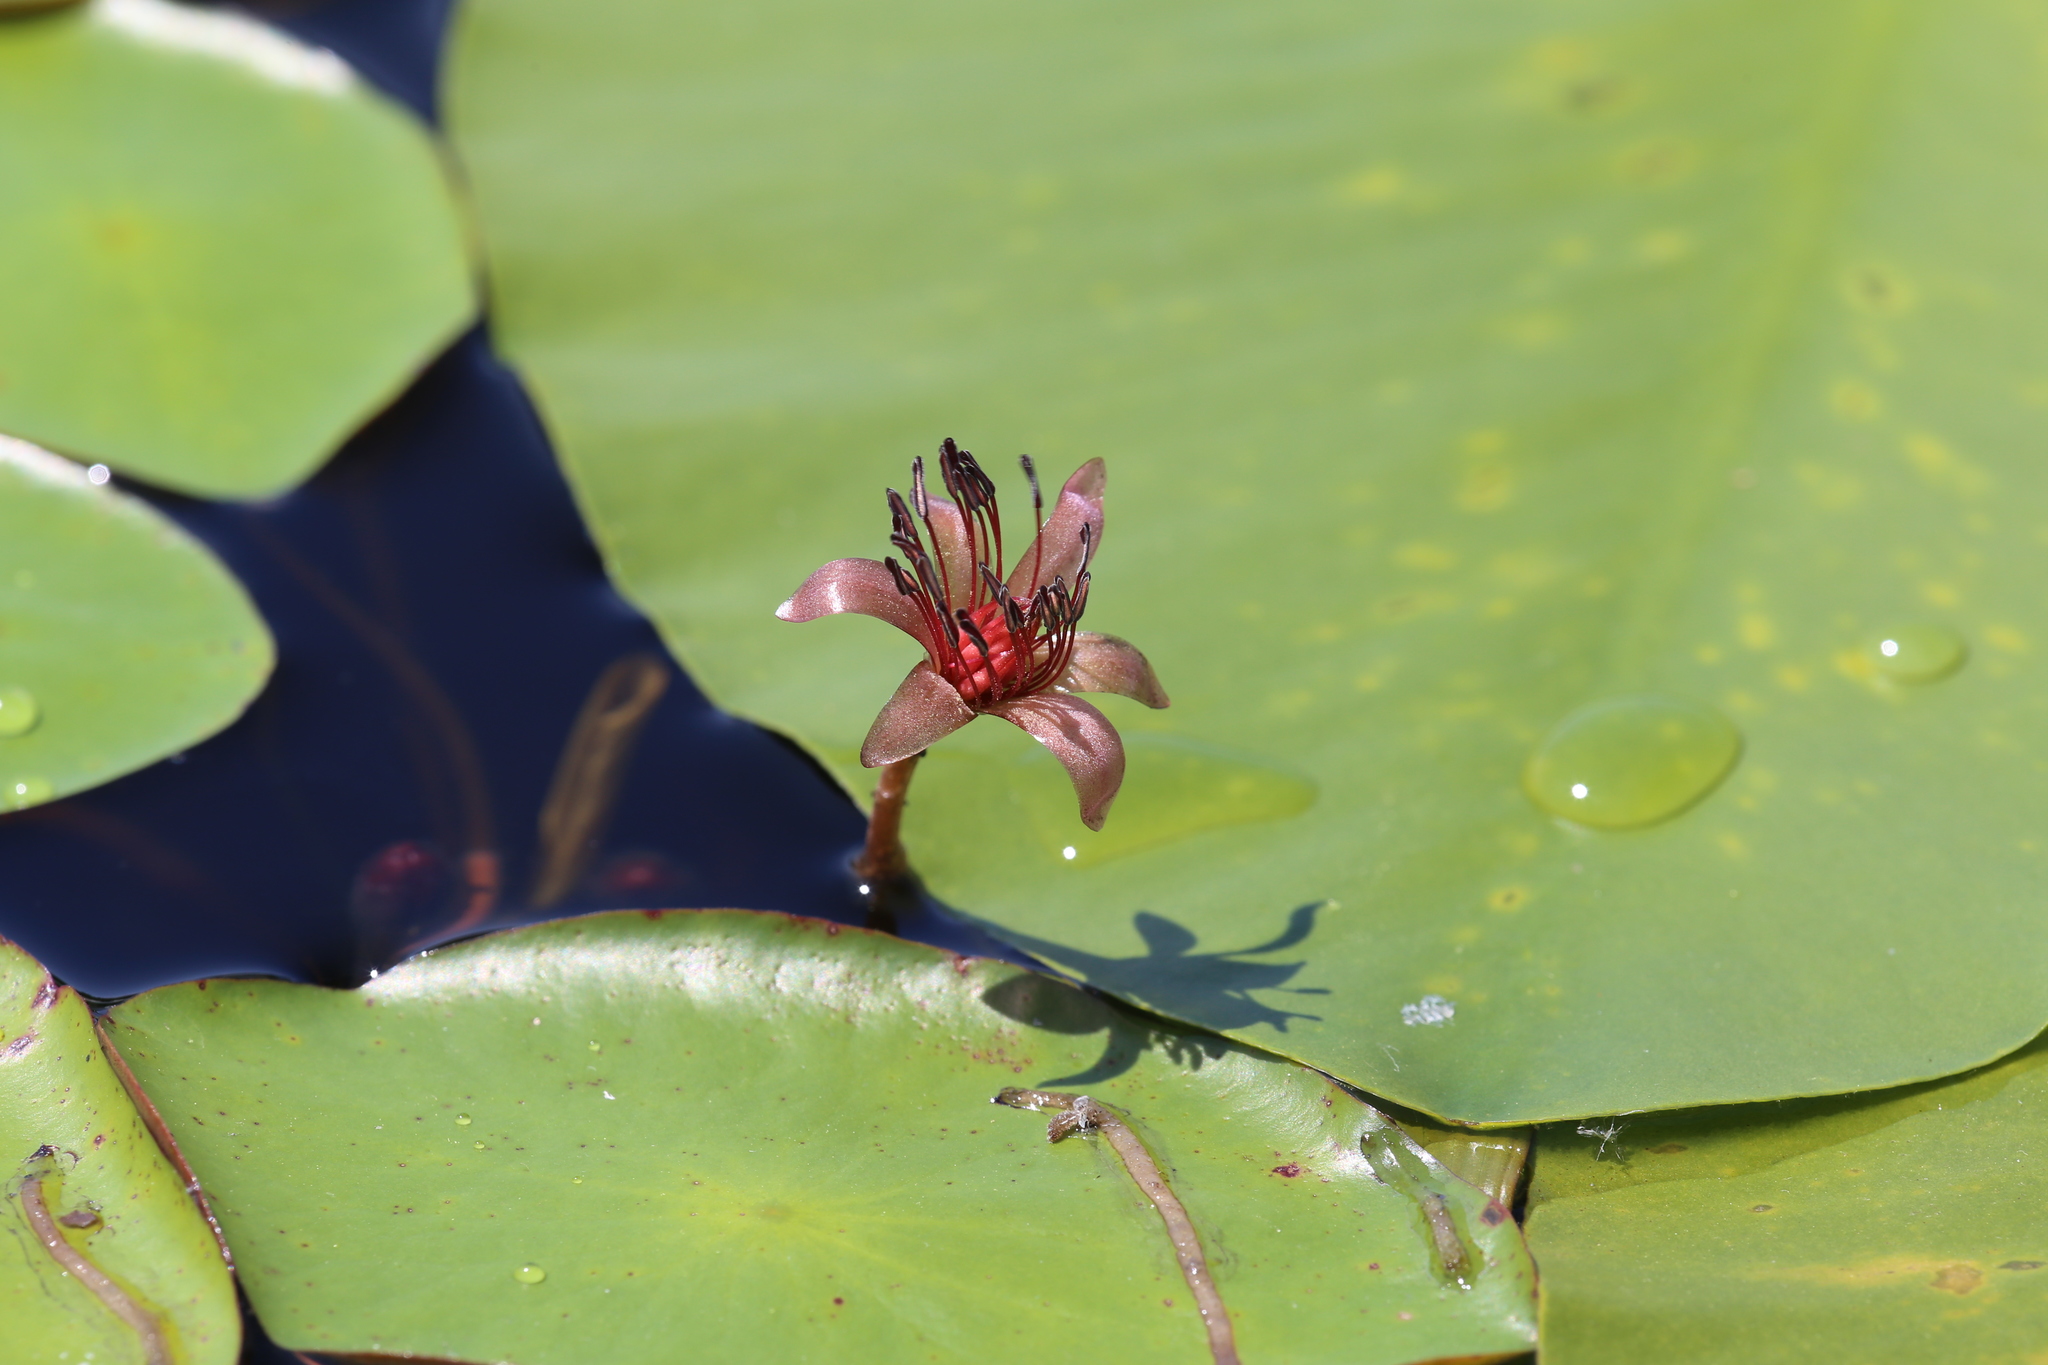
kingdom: Plantae
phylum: Tracheophyta
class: Magnoliopsida
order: Nymphaeales
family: Cabombaceae
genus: Brasenia
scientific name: Brasenia schreberi
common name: Water-shield
